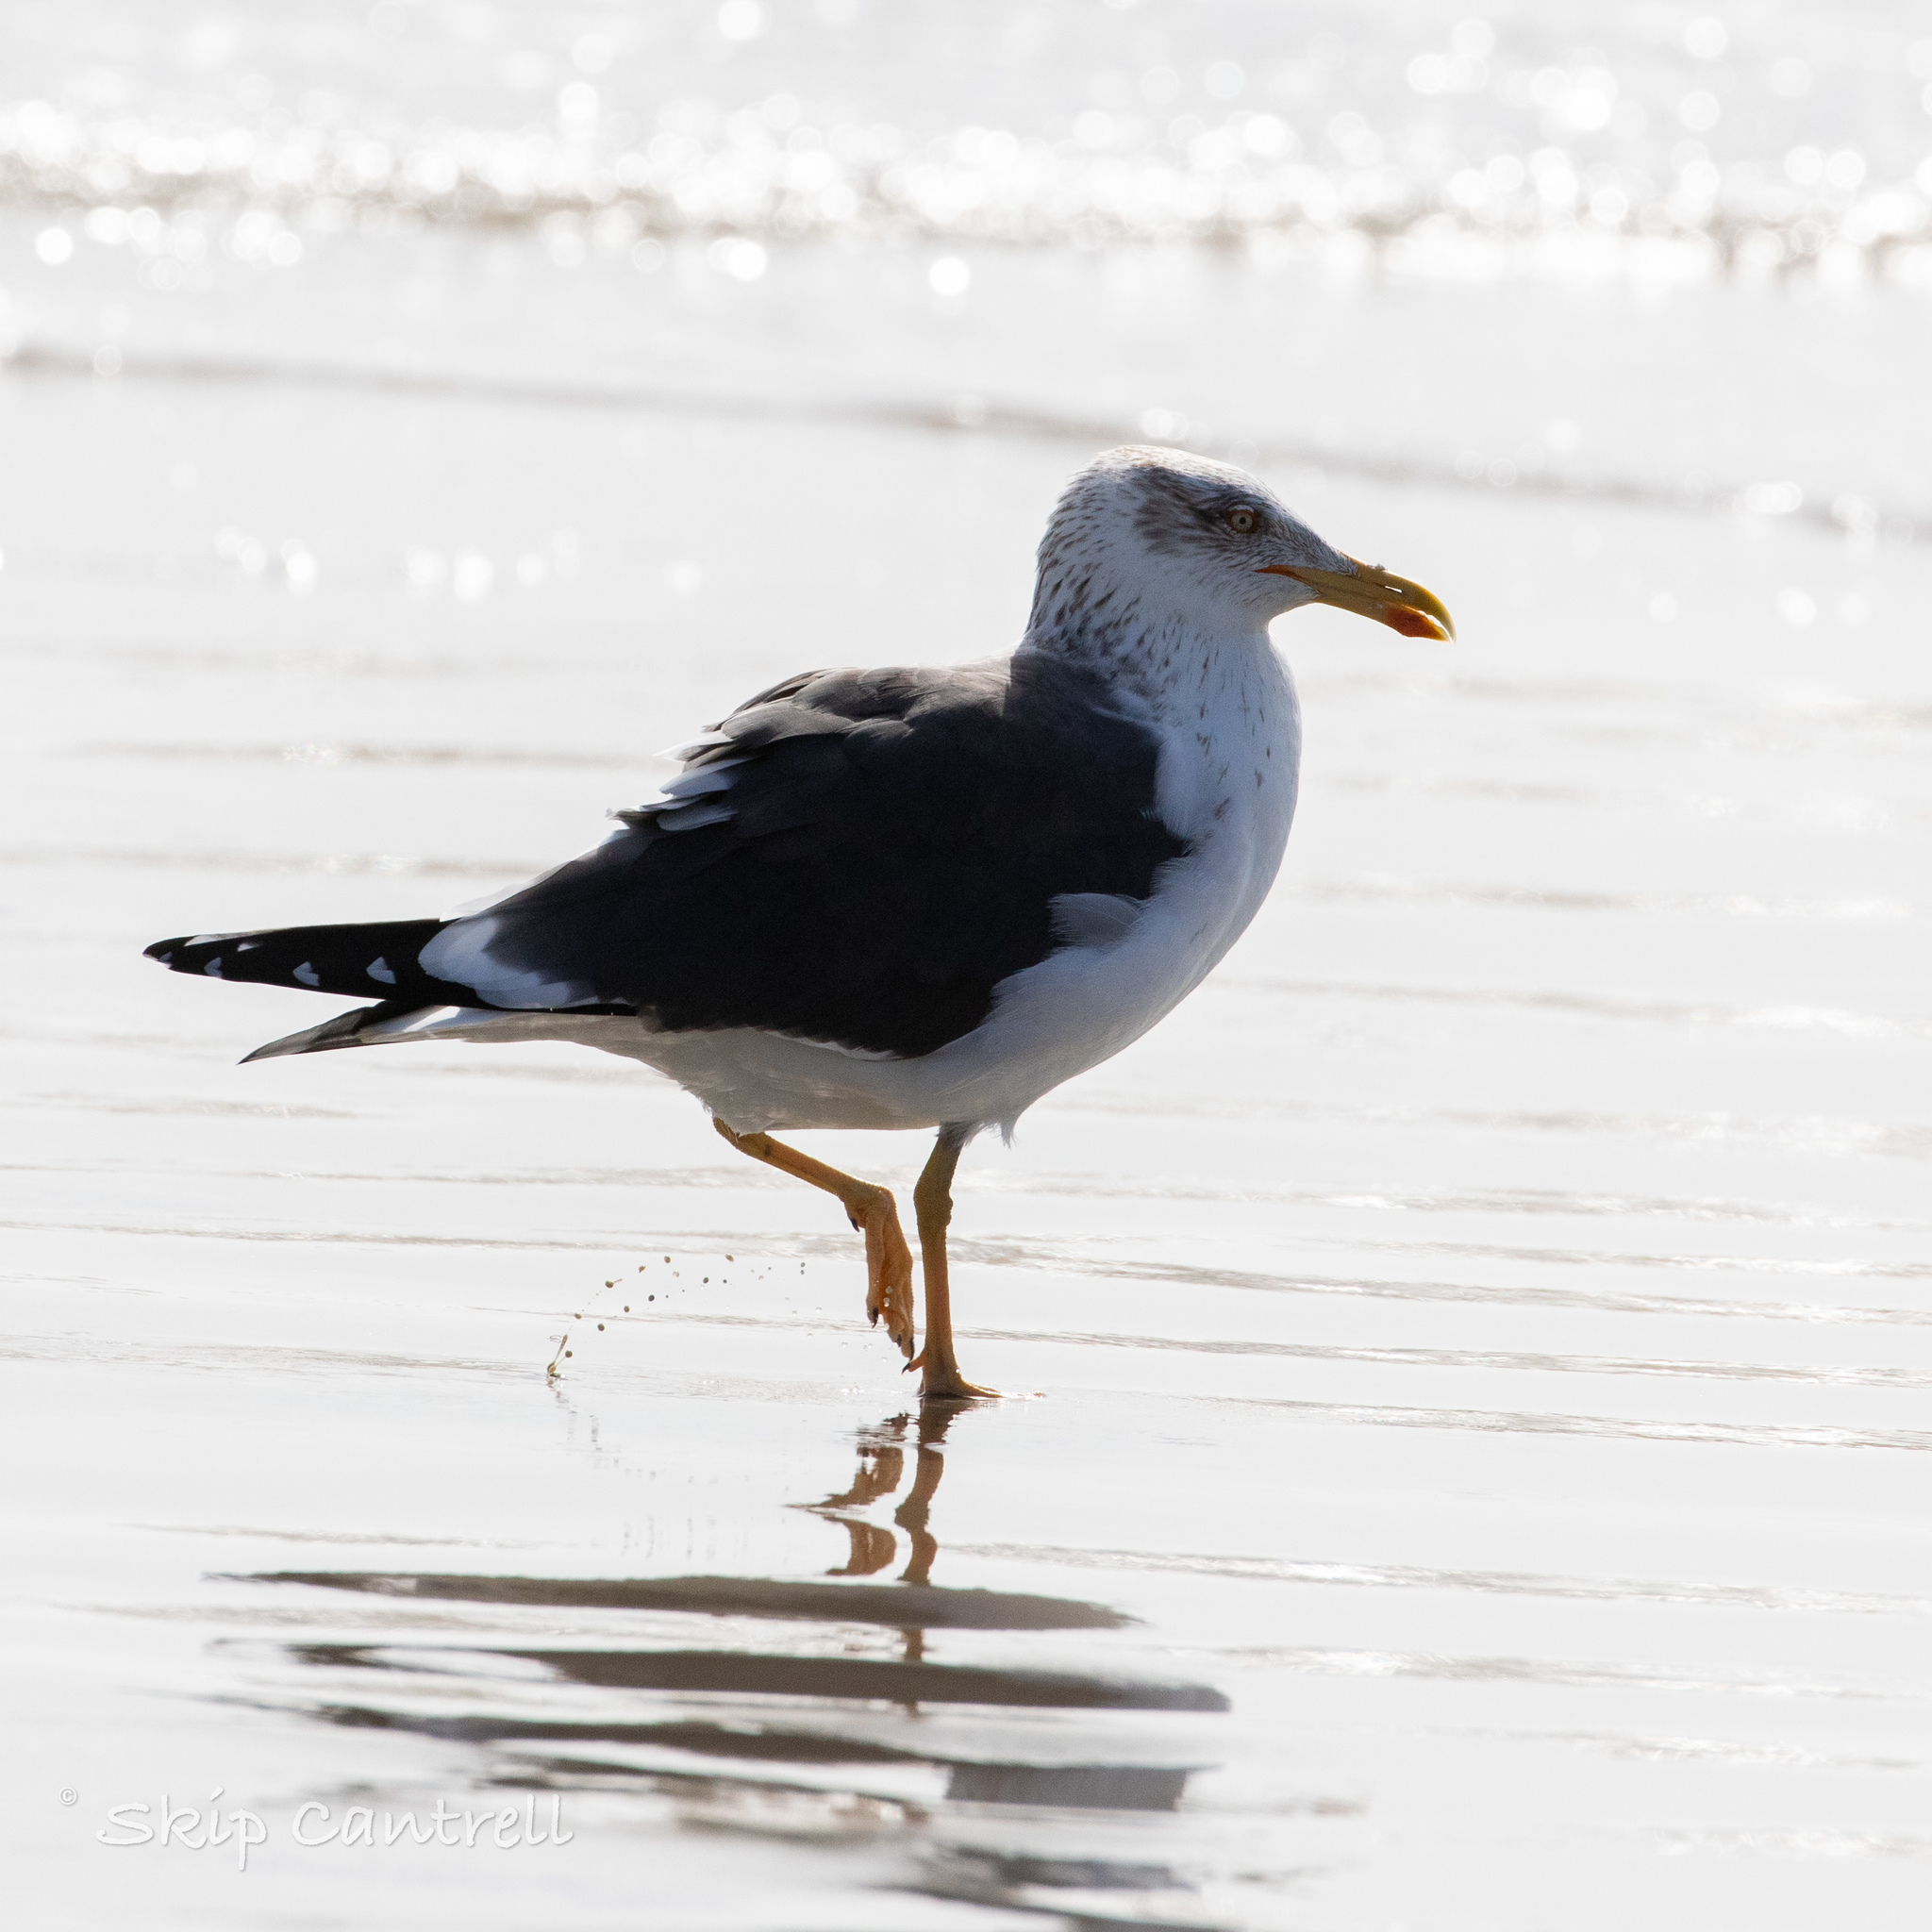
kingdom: Animalia
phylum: Chordata
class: Aves
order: Charadriiformes
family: Laridae
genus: Larus
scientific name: Larus fuscus
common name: Lesser black-backed gull
